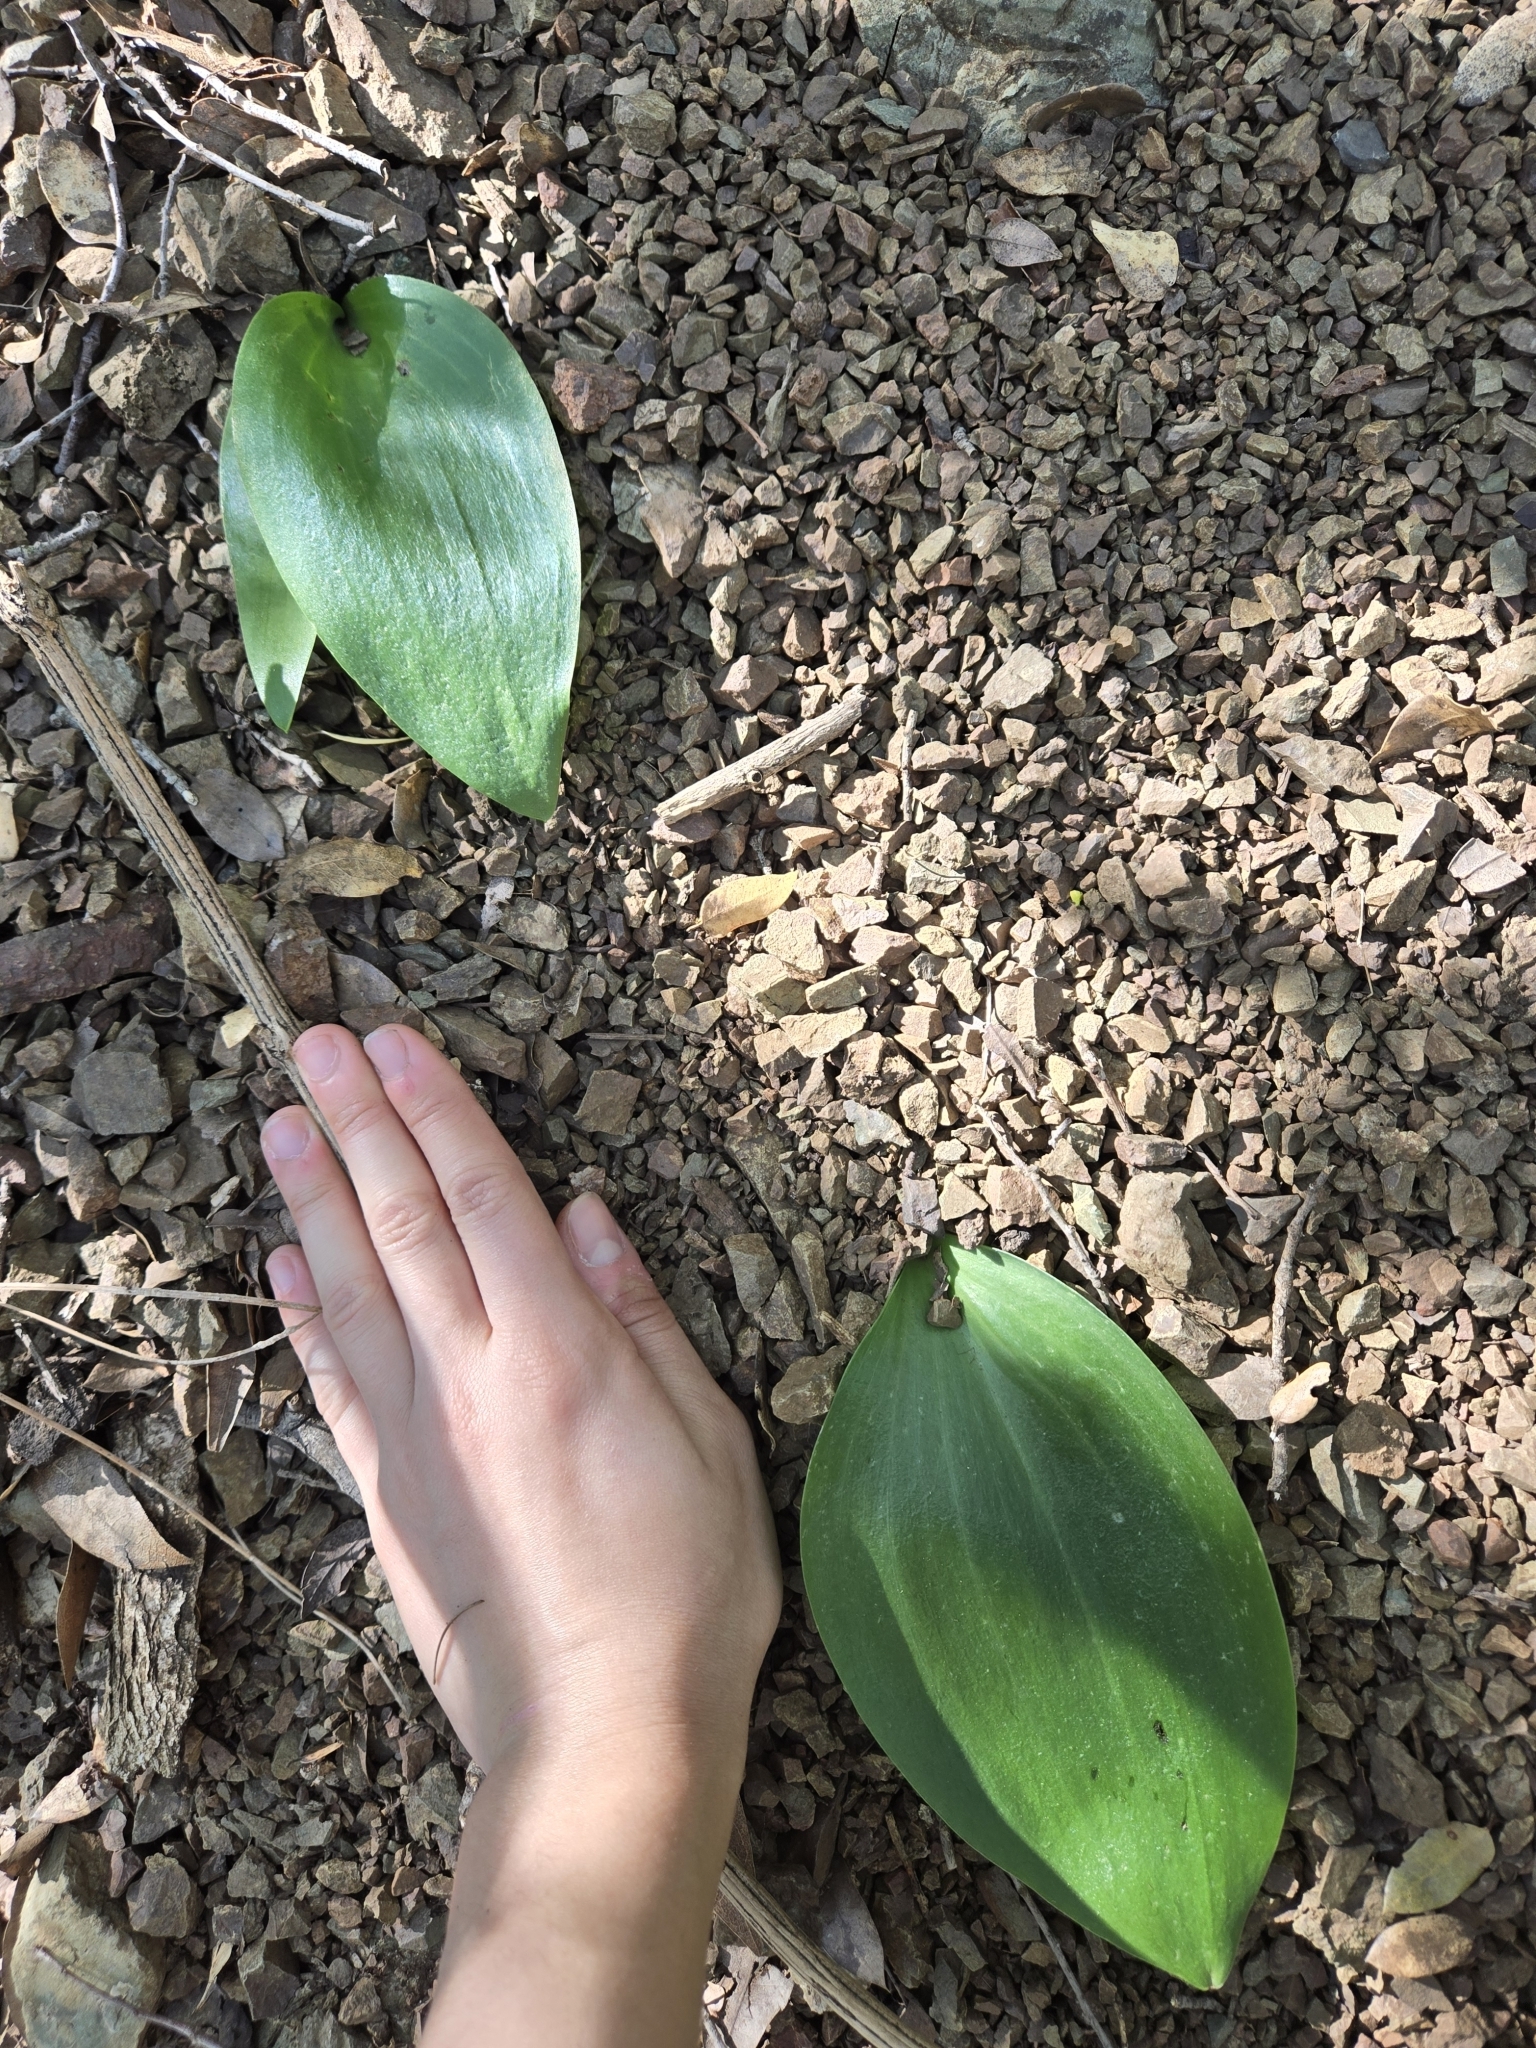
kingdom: Plantae
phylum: Tracheophyta
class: Liliopsida
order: Liliales
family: Liliaceae
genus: Fritillaria
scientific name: Fritillaria affinis
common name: Ojai fritillary
